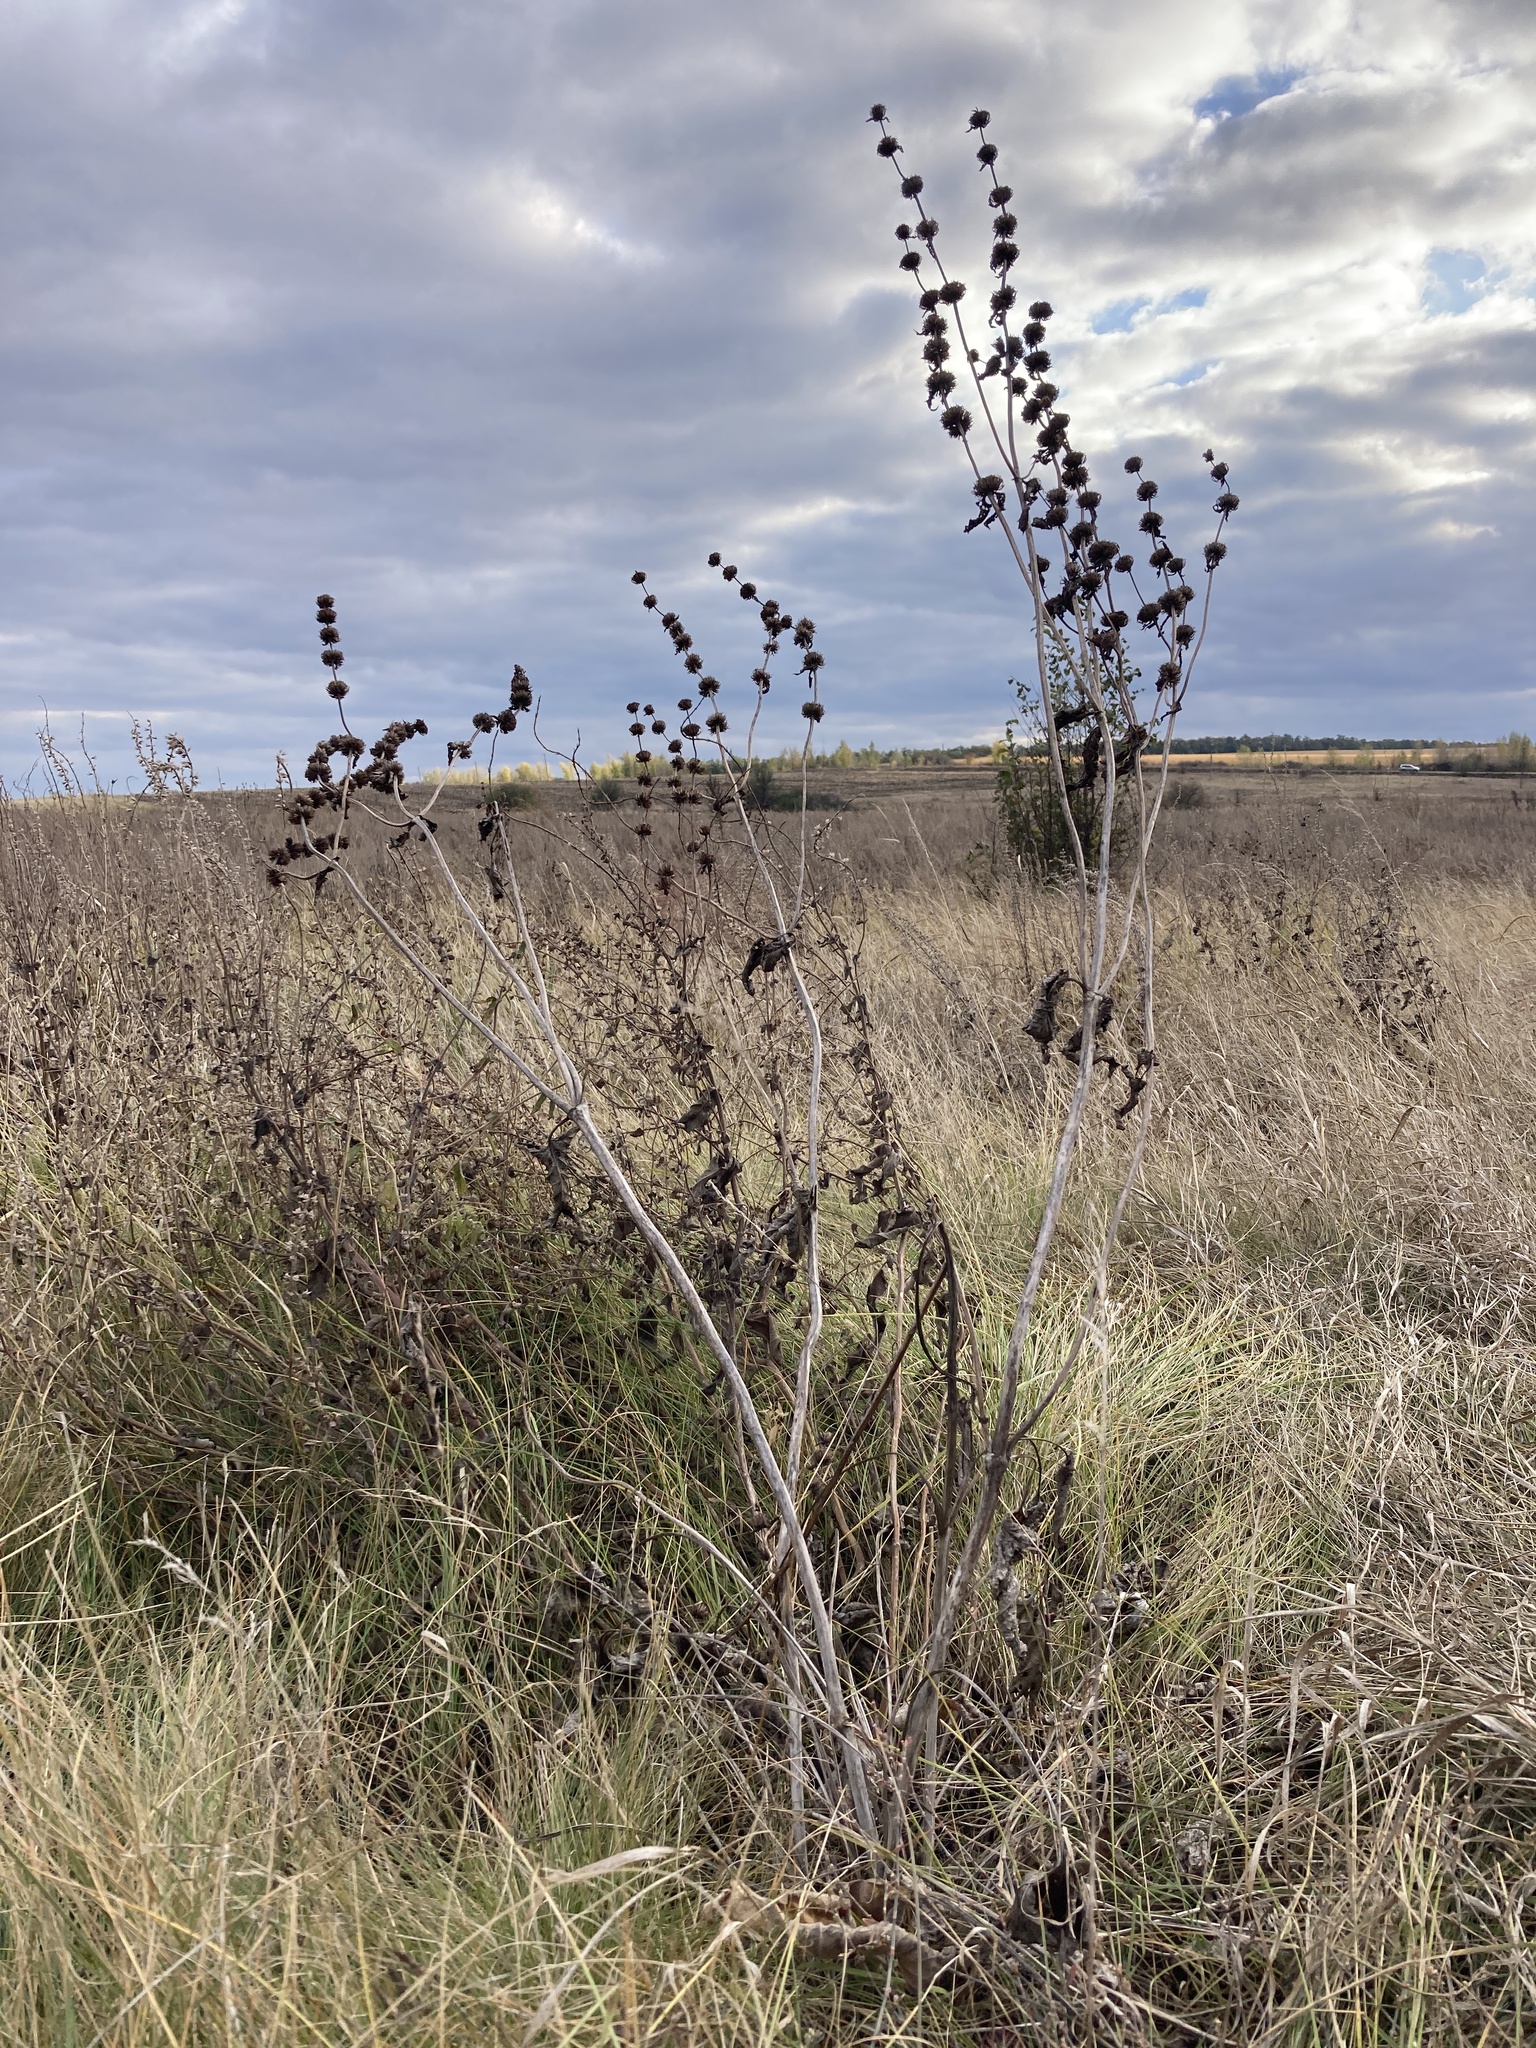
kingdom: Plantae
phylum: Tracheophyta
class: Magnoliopsida
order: Lamiales
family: Lamiaceae
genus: Phlomoides
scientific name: Phlomoides tuberosa
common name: Tuberous jerusalem sage
